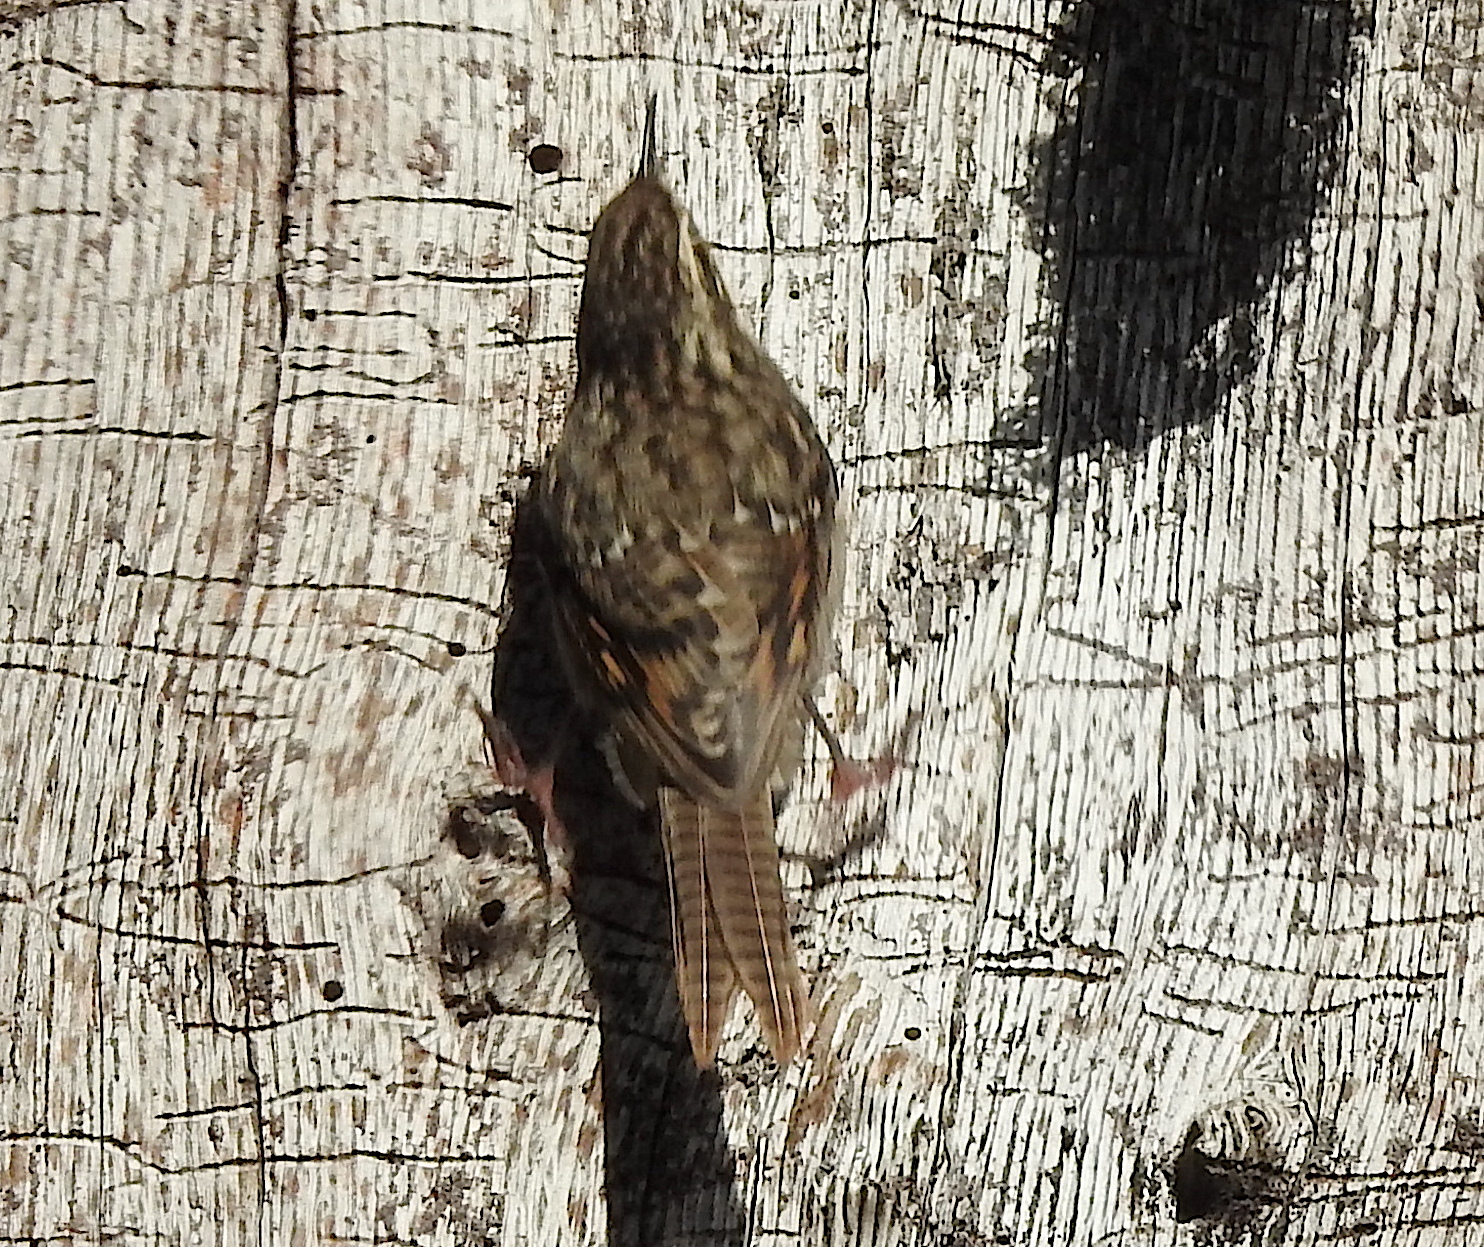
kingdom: Animalia
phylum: Chordata
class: Aves
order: Passeriformes
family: Certhiidae
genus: Certhia
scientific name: Certhia himalayana
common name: Bar-tailed treecreeper
